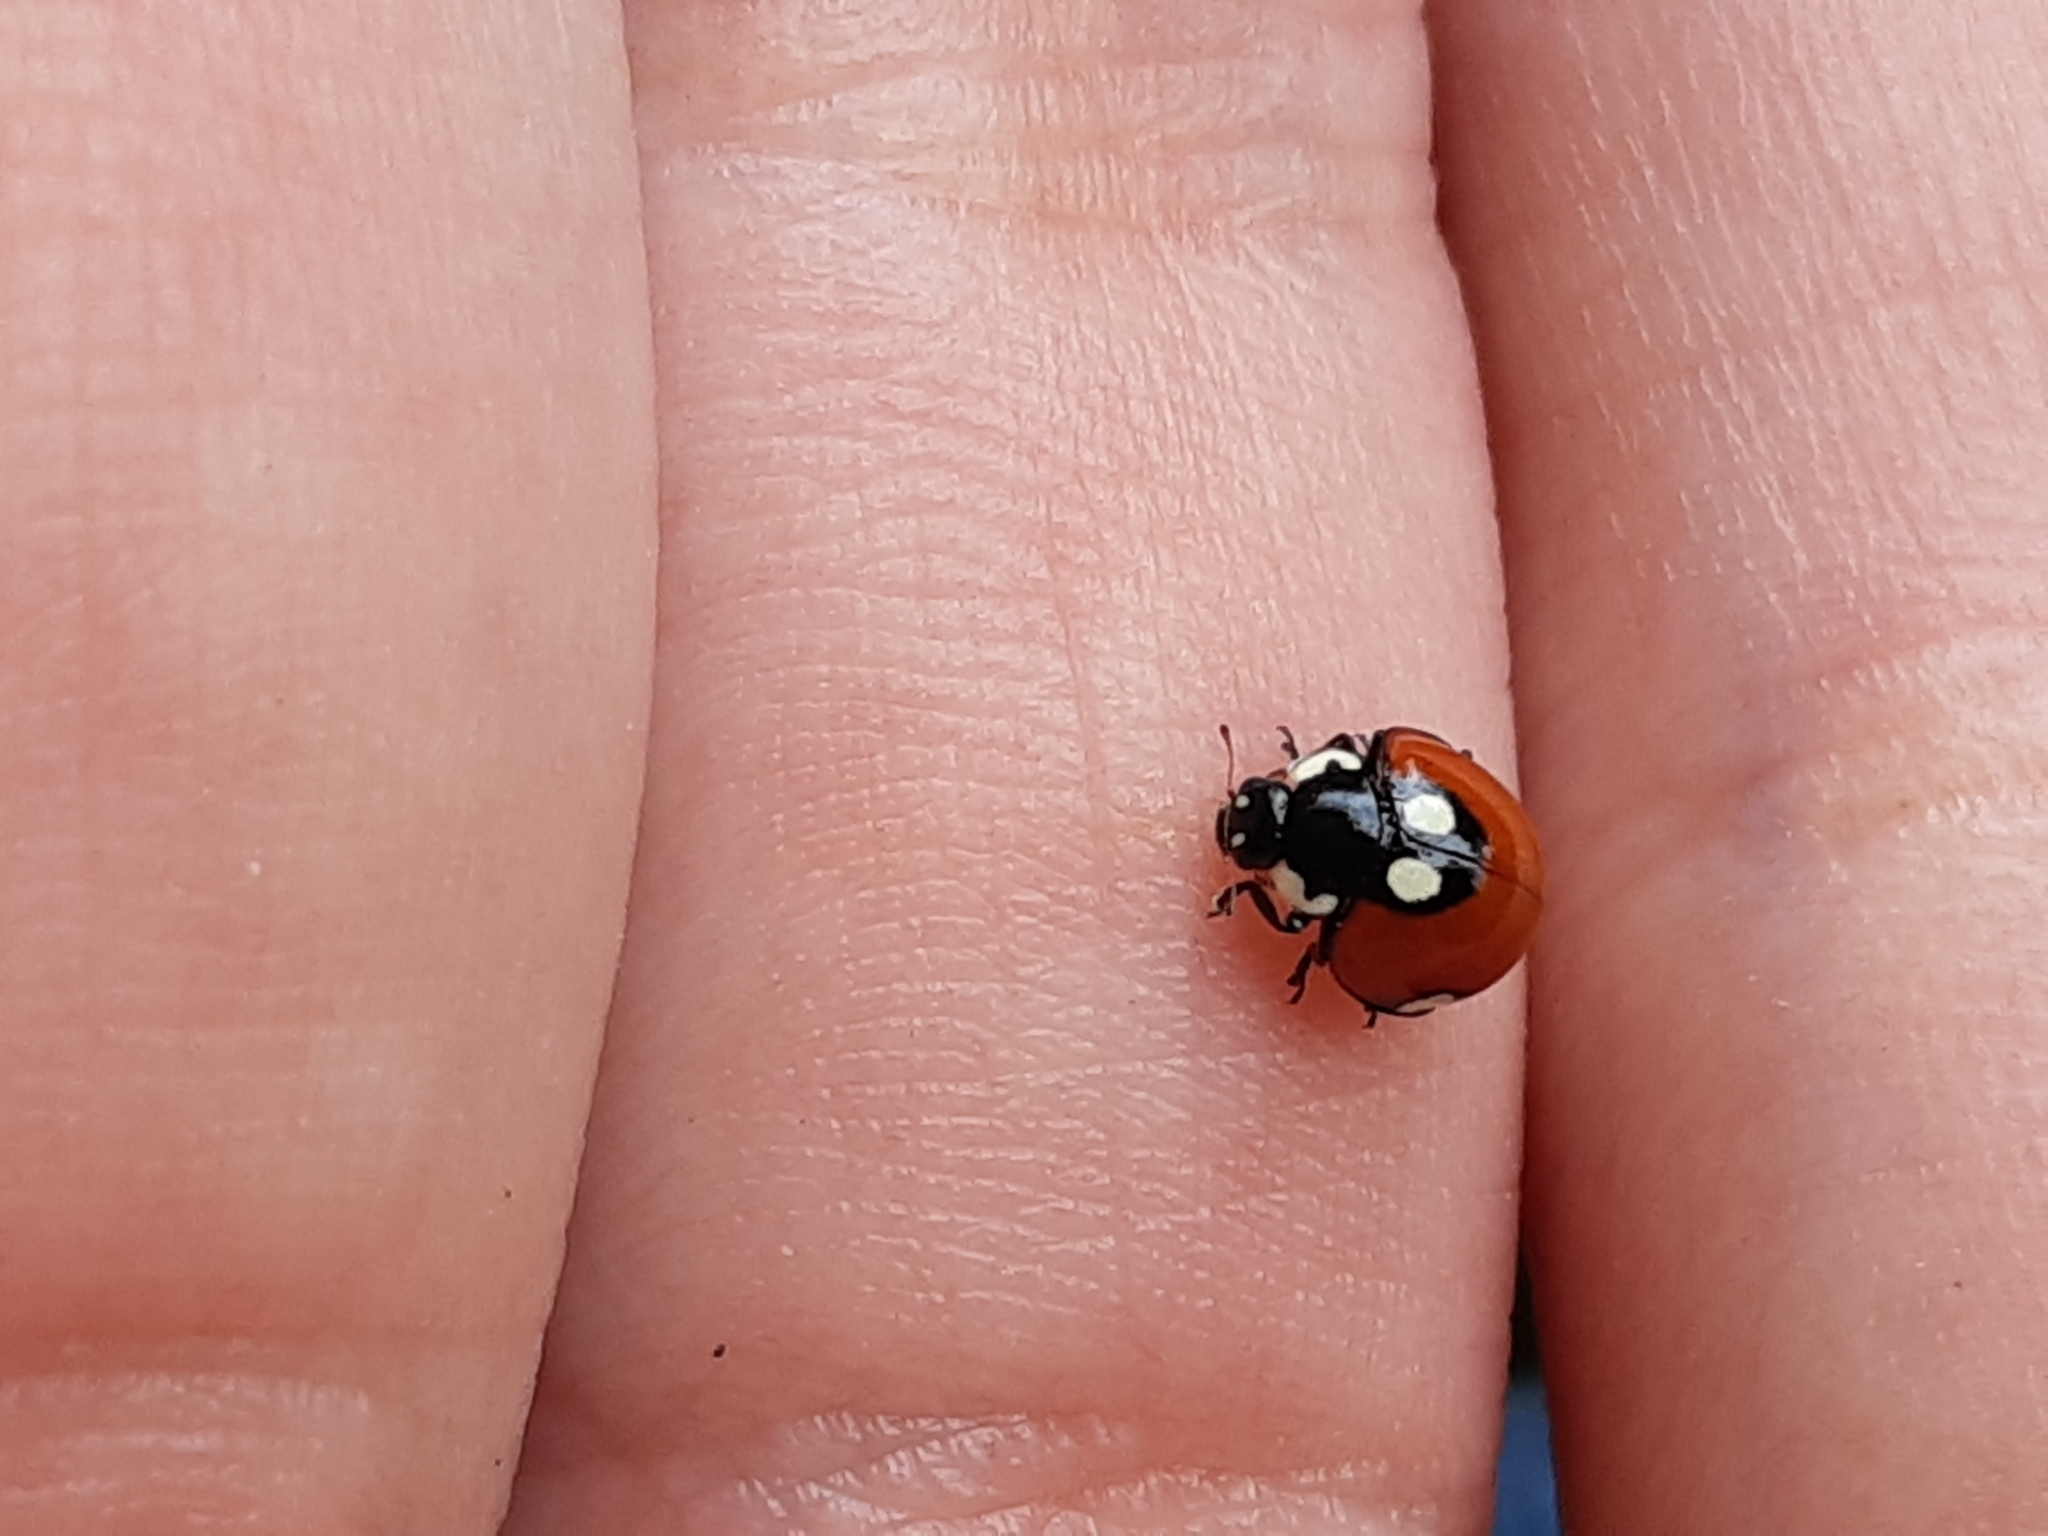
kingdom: Animalia
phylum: Arthropoda
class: Insecta
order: Coleoptera
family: Coccinellidae
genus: Cycloneda
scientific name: Cycloneda
